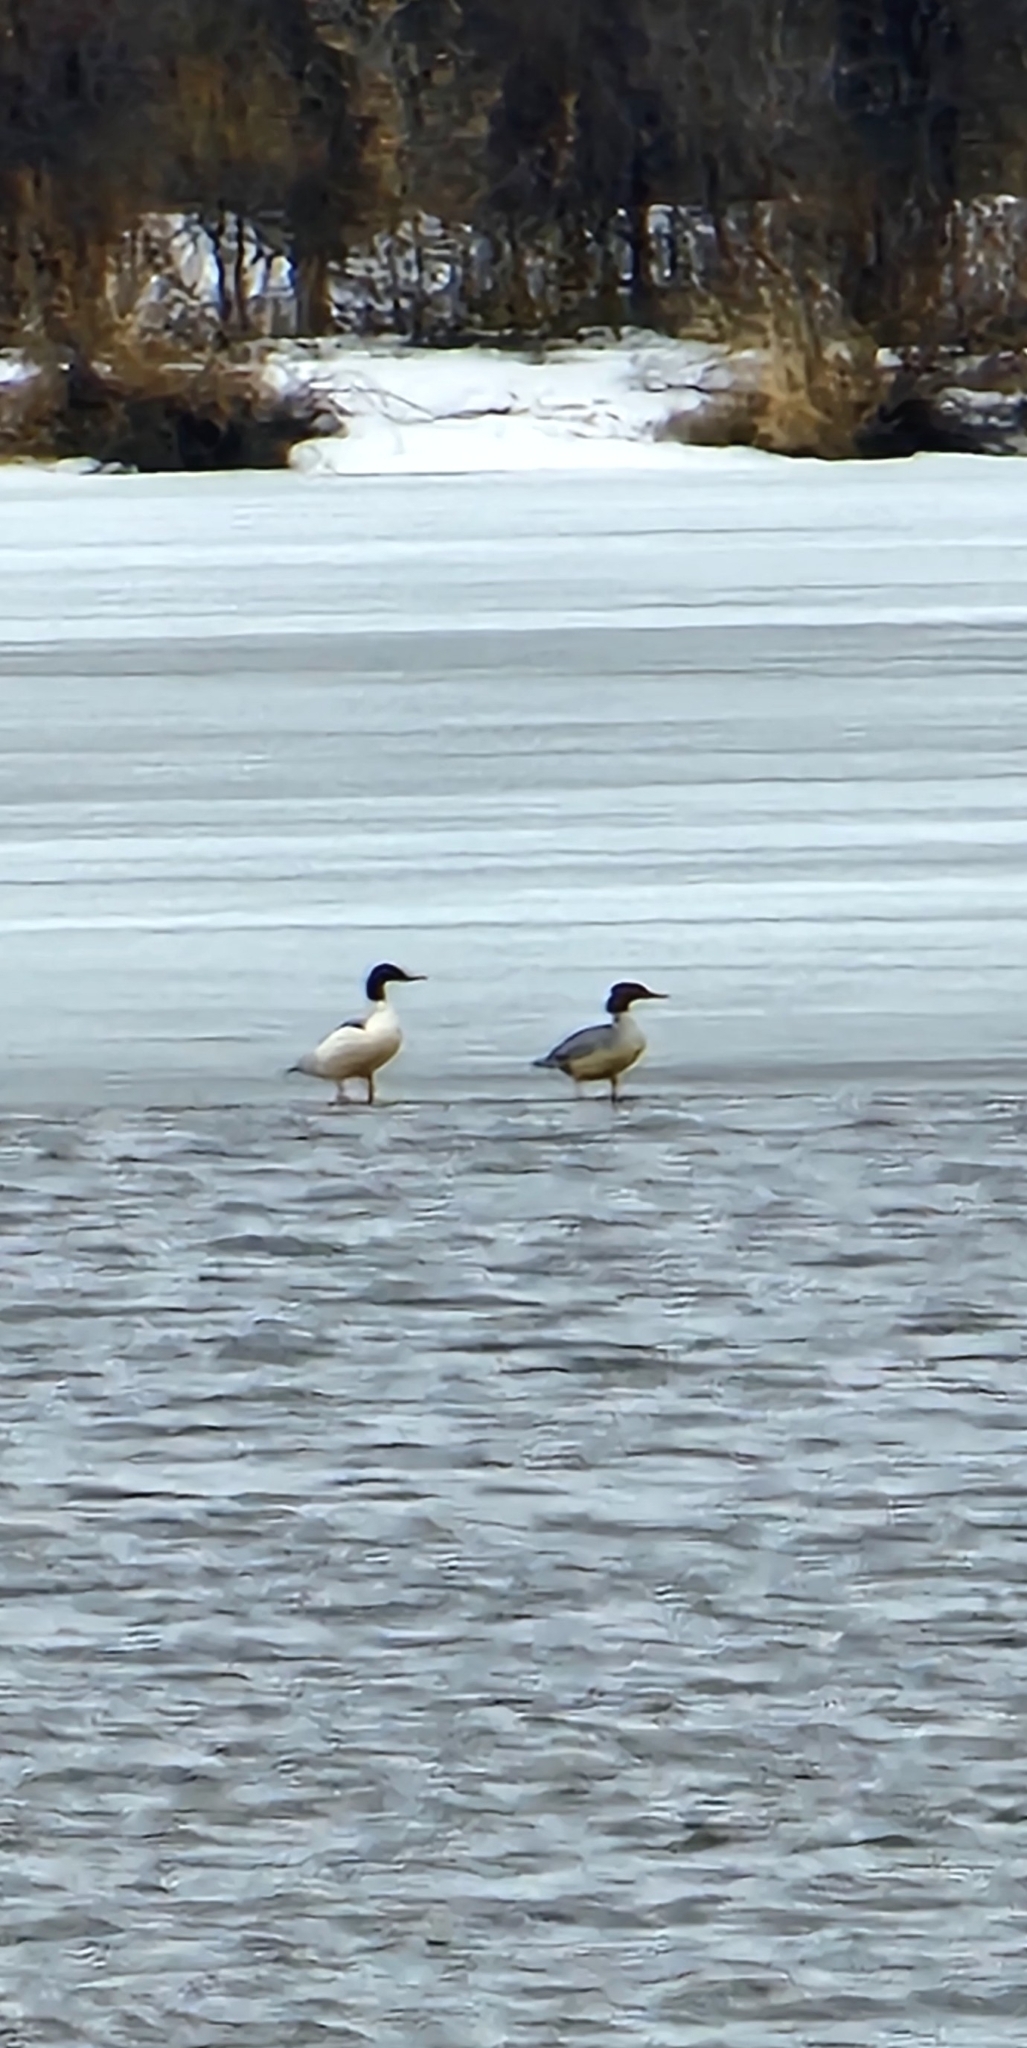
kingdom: Animalia
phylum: Chordata
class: Aves
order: Anseriformes
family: Anatidae
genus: Mergus
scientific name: Mergus merganser
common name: Common merganser
